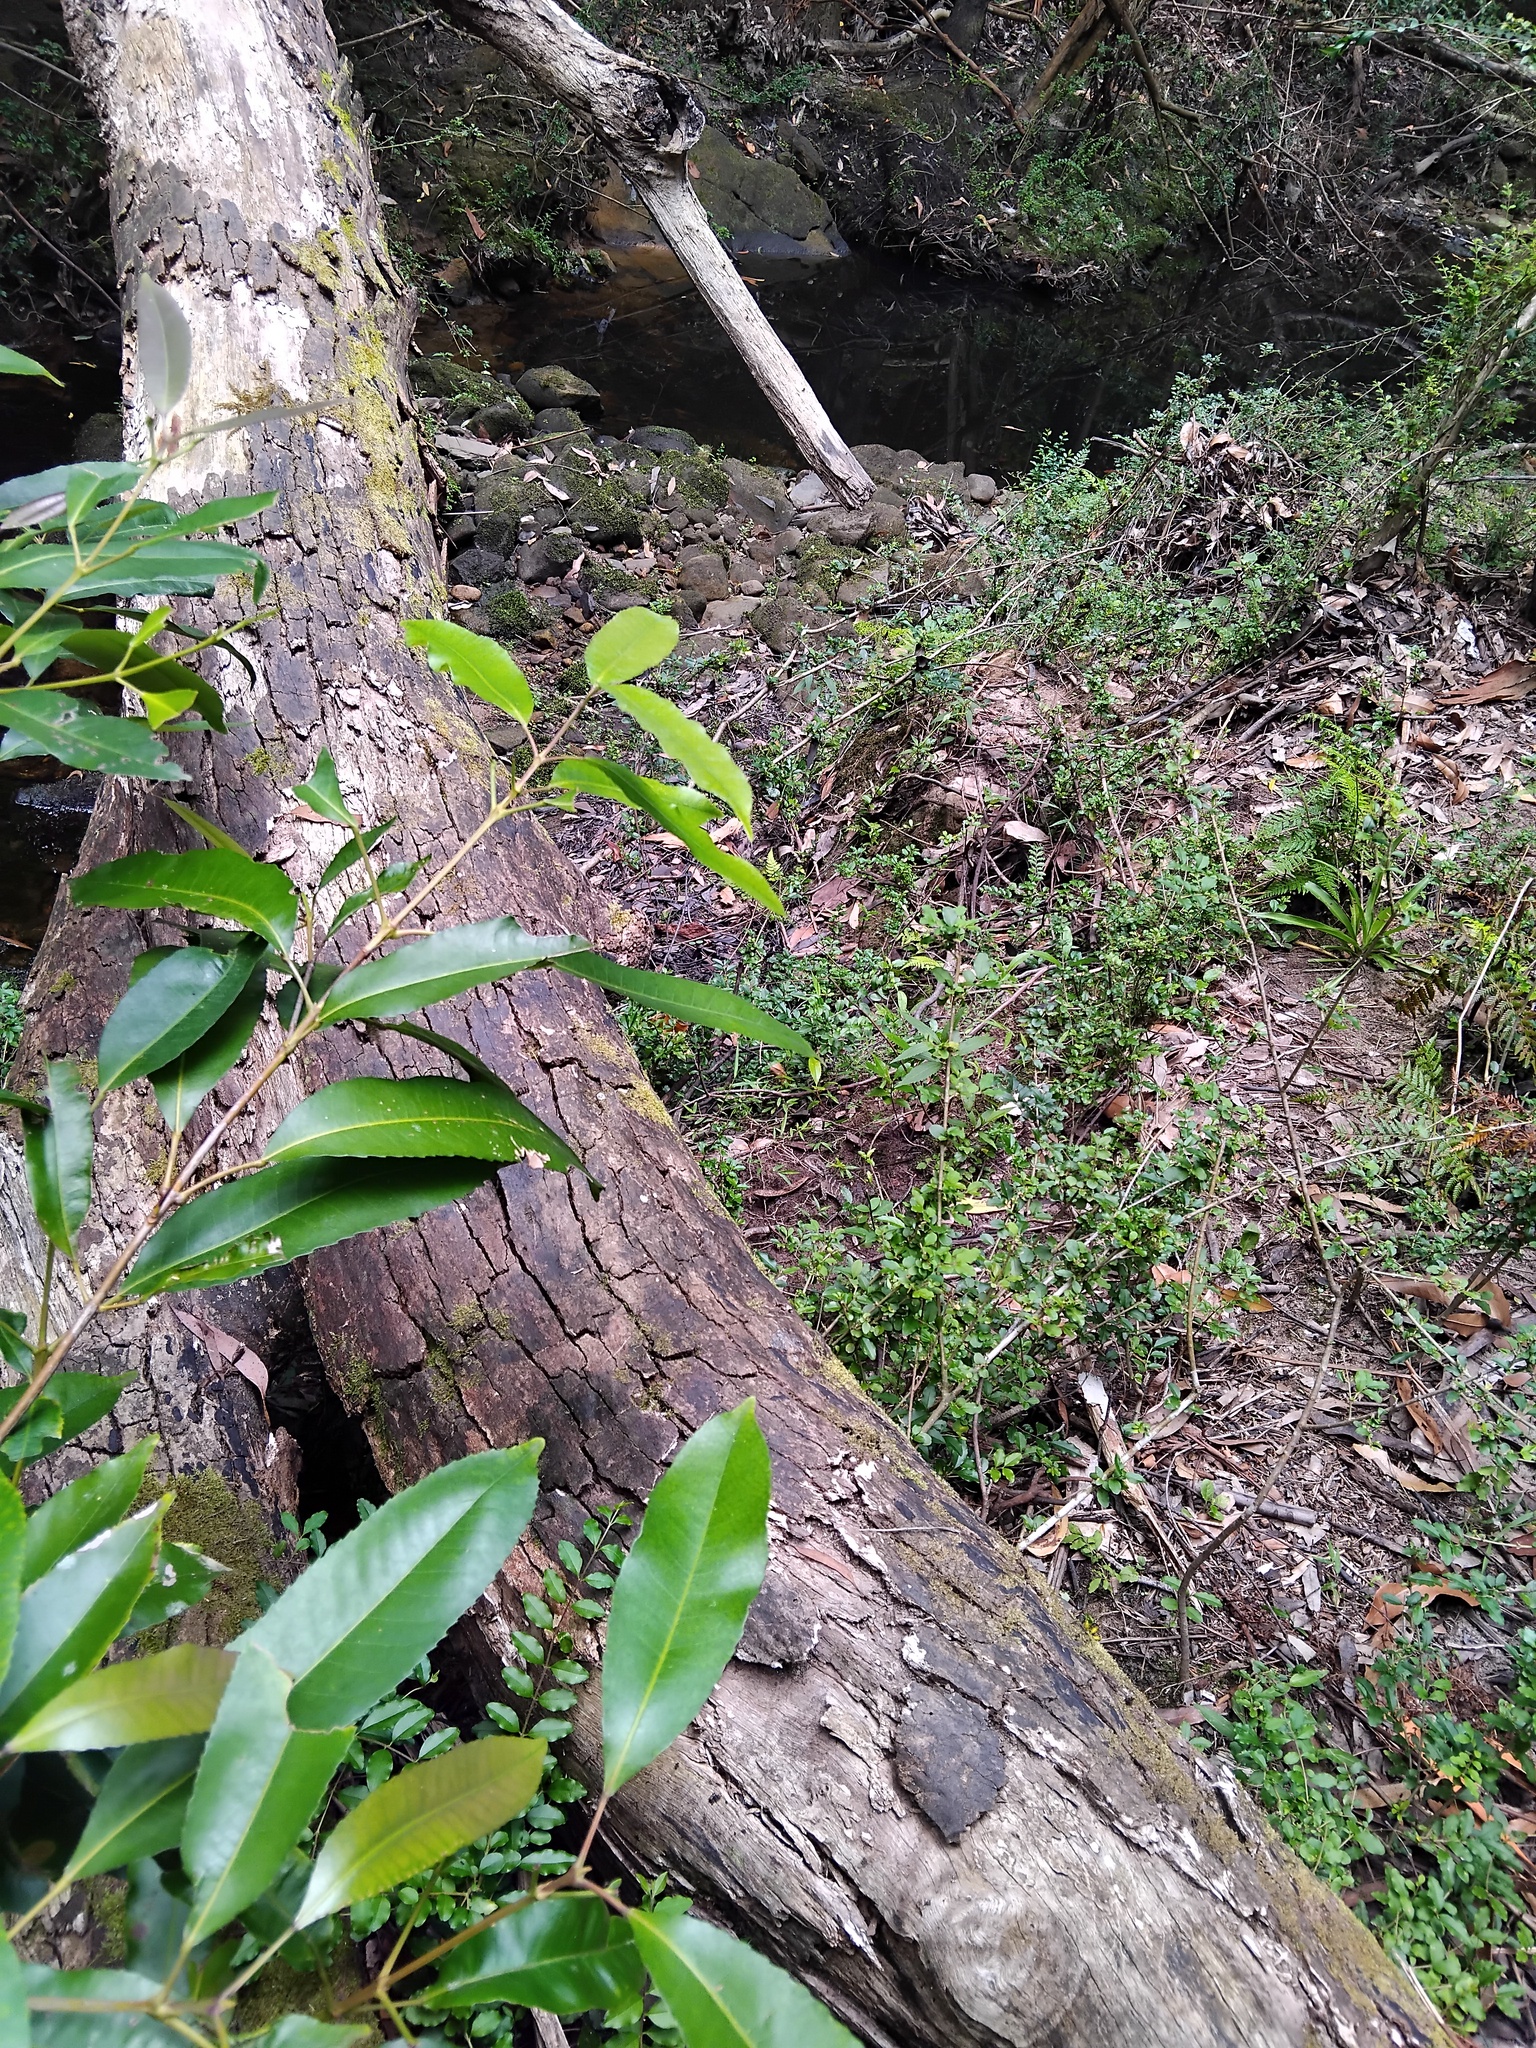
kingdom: Animalia
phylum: Chordata
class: Squamata
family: Agamidae
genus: Intellagama
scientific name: Intellagama lesueurii
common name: Eastern water dragon
